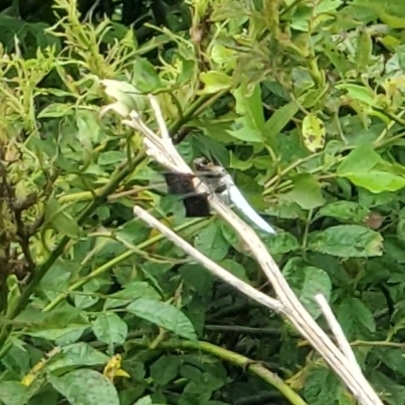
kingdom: Animalia
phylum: Arthropoda
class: Insecta
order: Odonata
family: Libellulidae
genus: Plathemis
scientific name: Plathemis lydia
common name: Common whitetail
